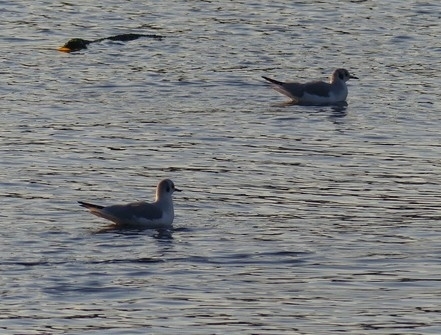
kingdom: Animalia
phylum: Chordata
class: Aves
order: Charadriiformes
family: Laridae
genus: Chroicocephalus
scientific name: Chroicocephalus philadelphia
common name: Bonaparte's gull
